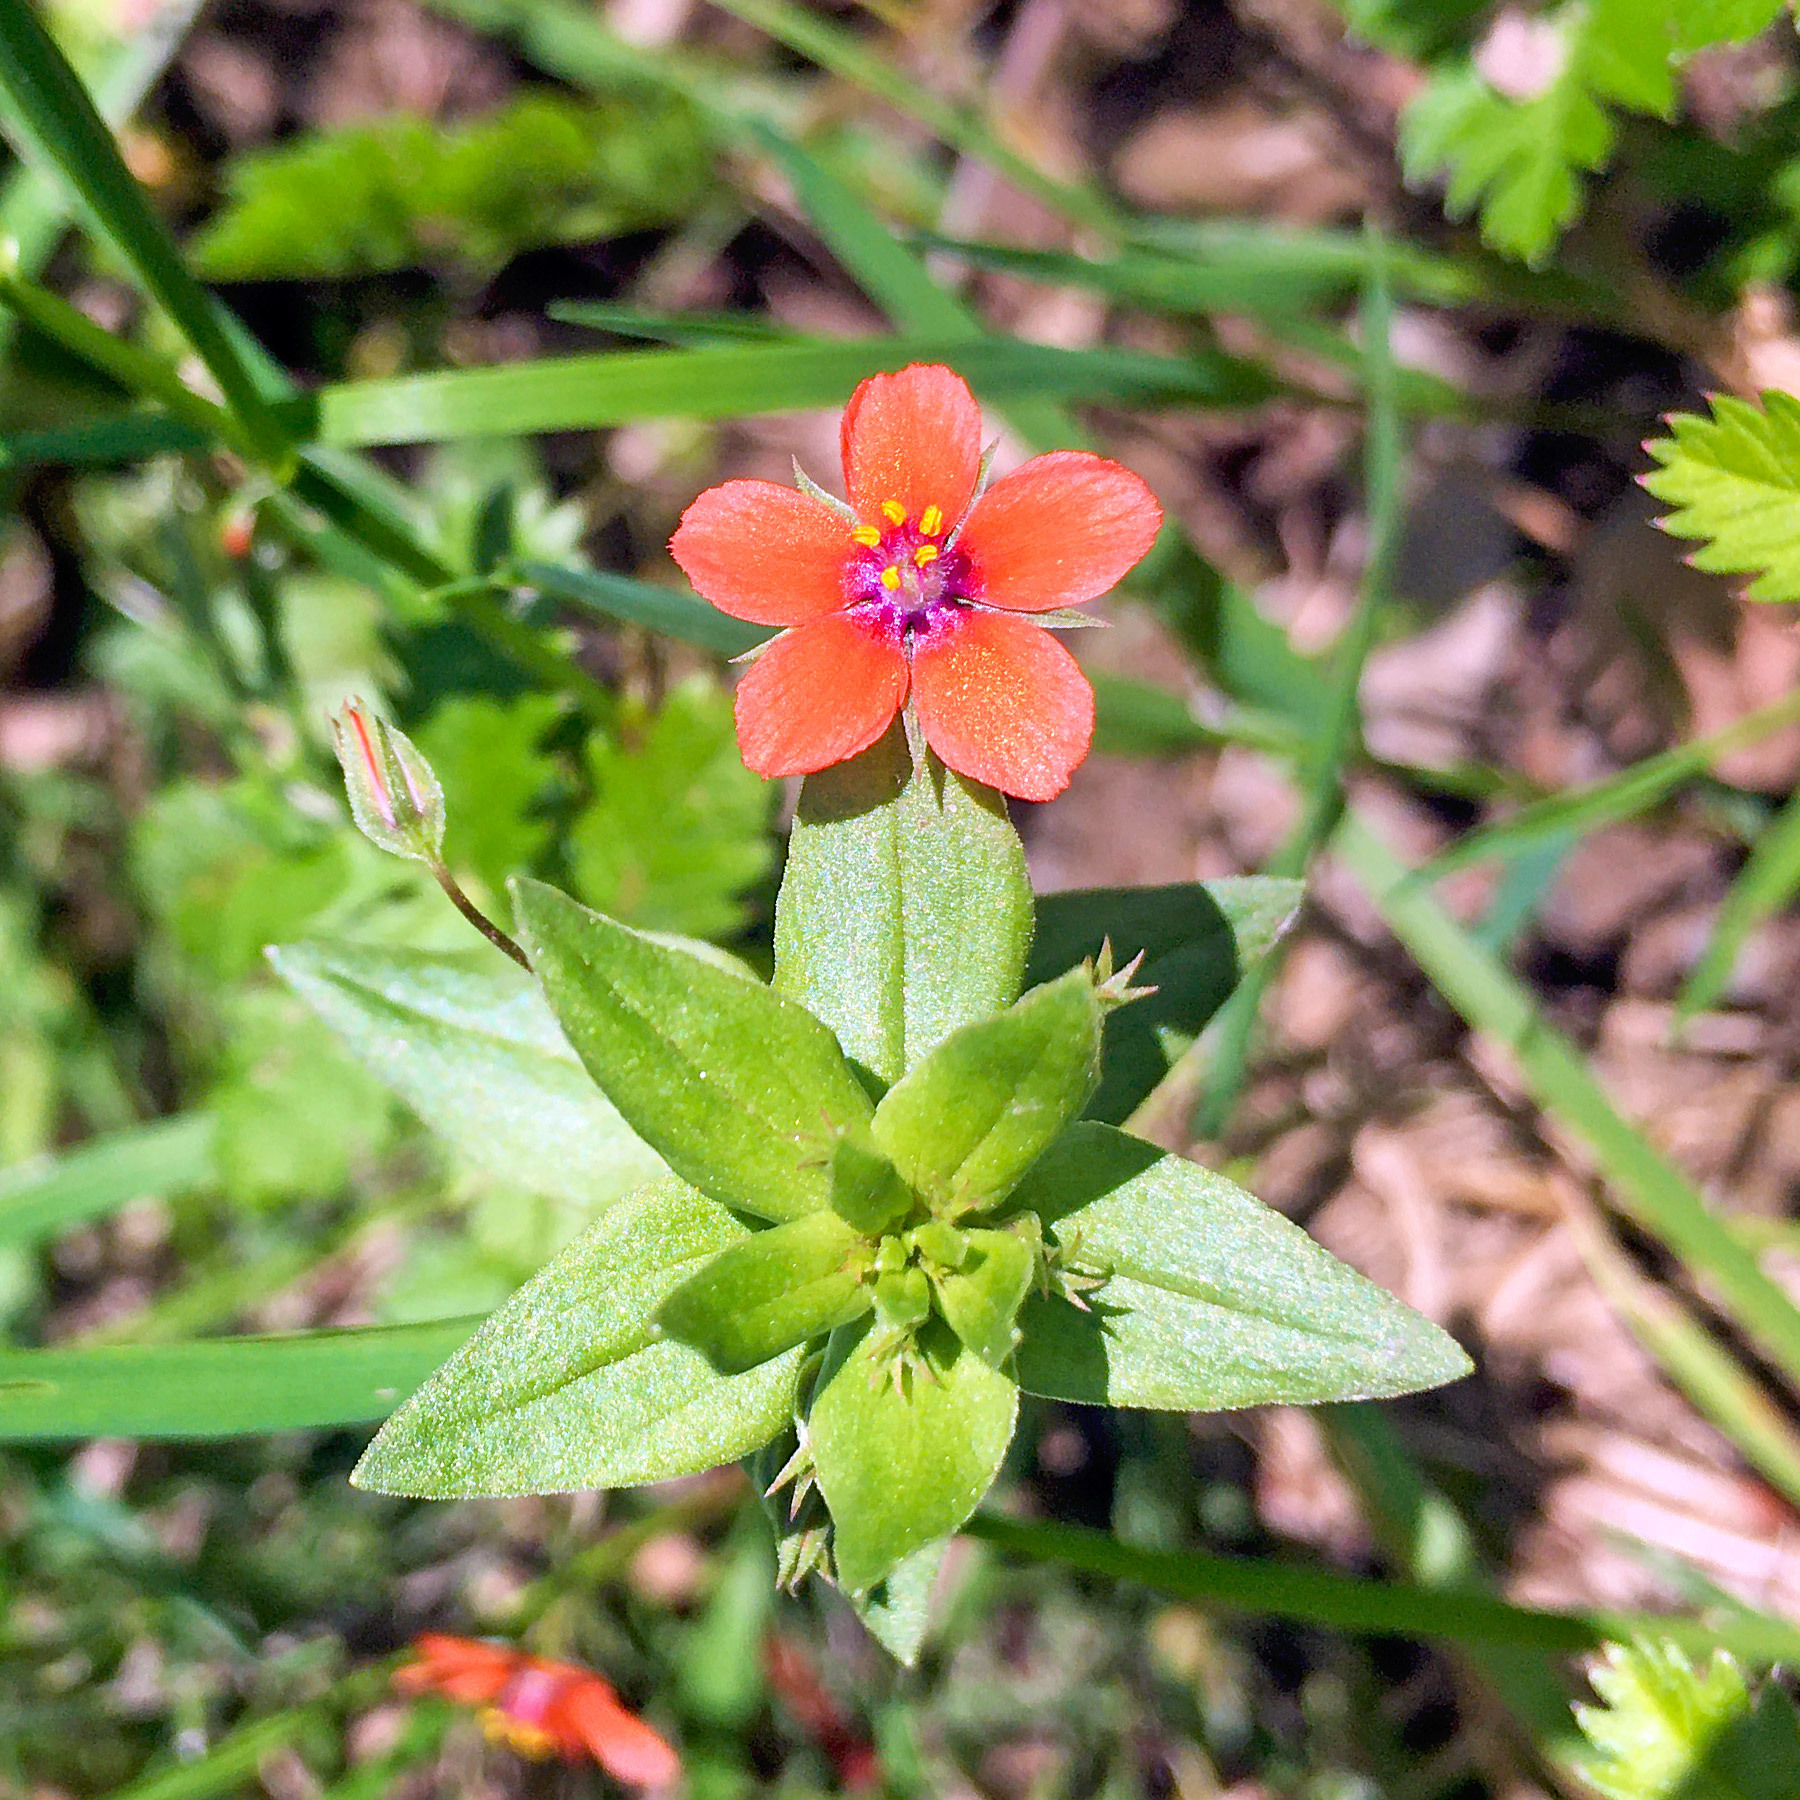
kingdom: Plantae
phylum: Tracheophyta
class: Magnoliopsida
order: Ericales
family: Primulaceae
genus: Lysimachia
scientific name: Lysimachia arvensis
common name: Scarlet pimpernel
